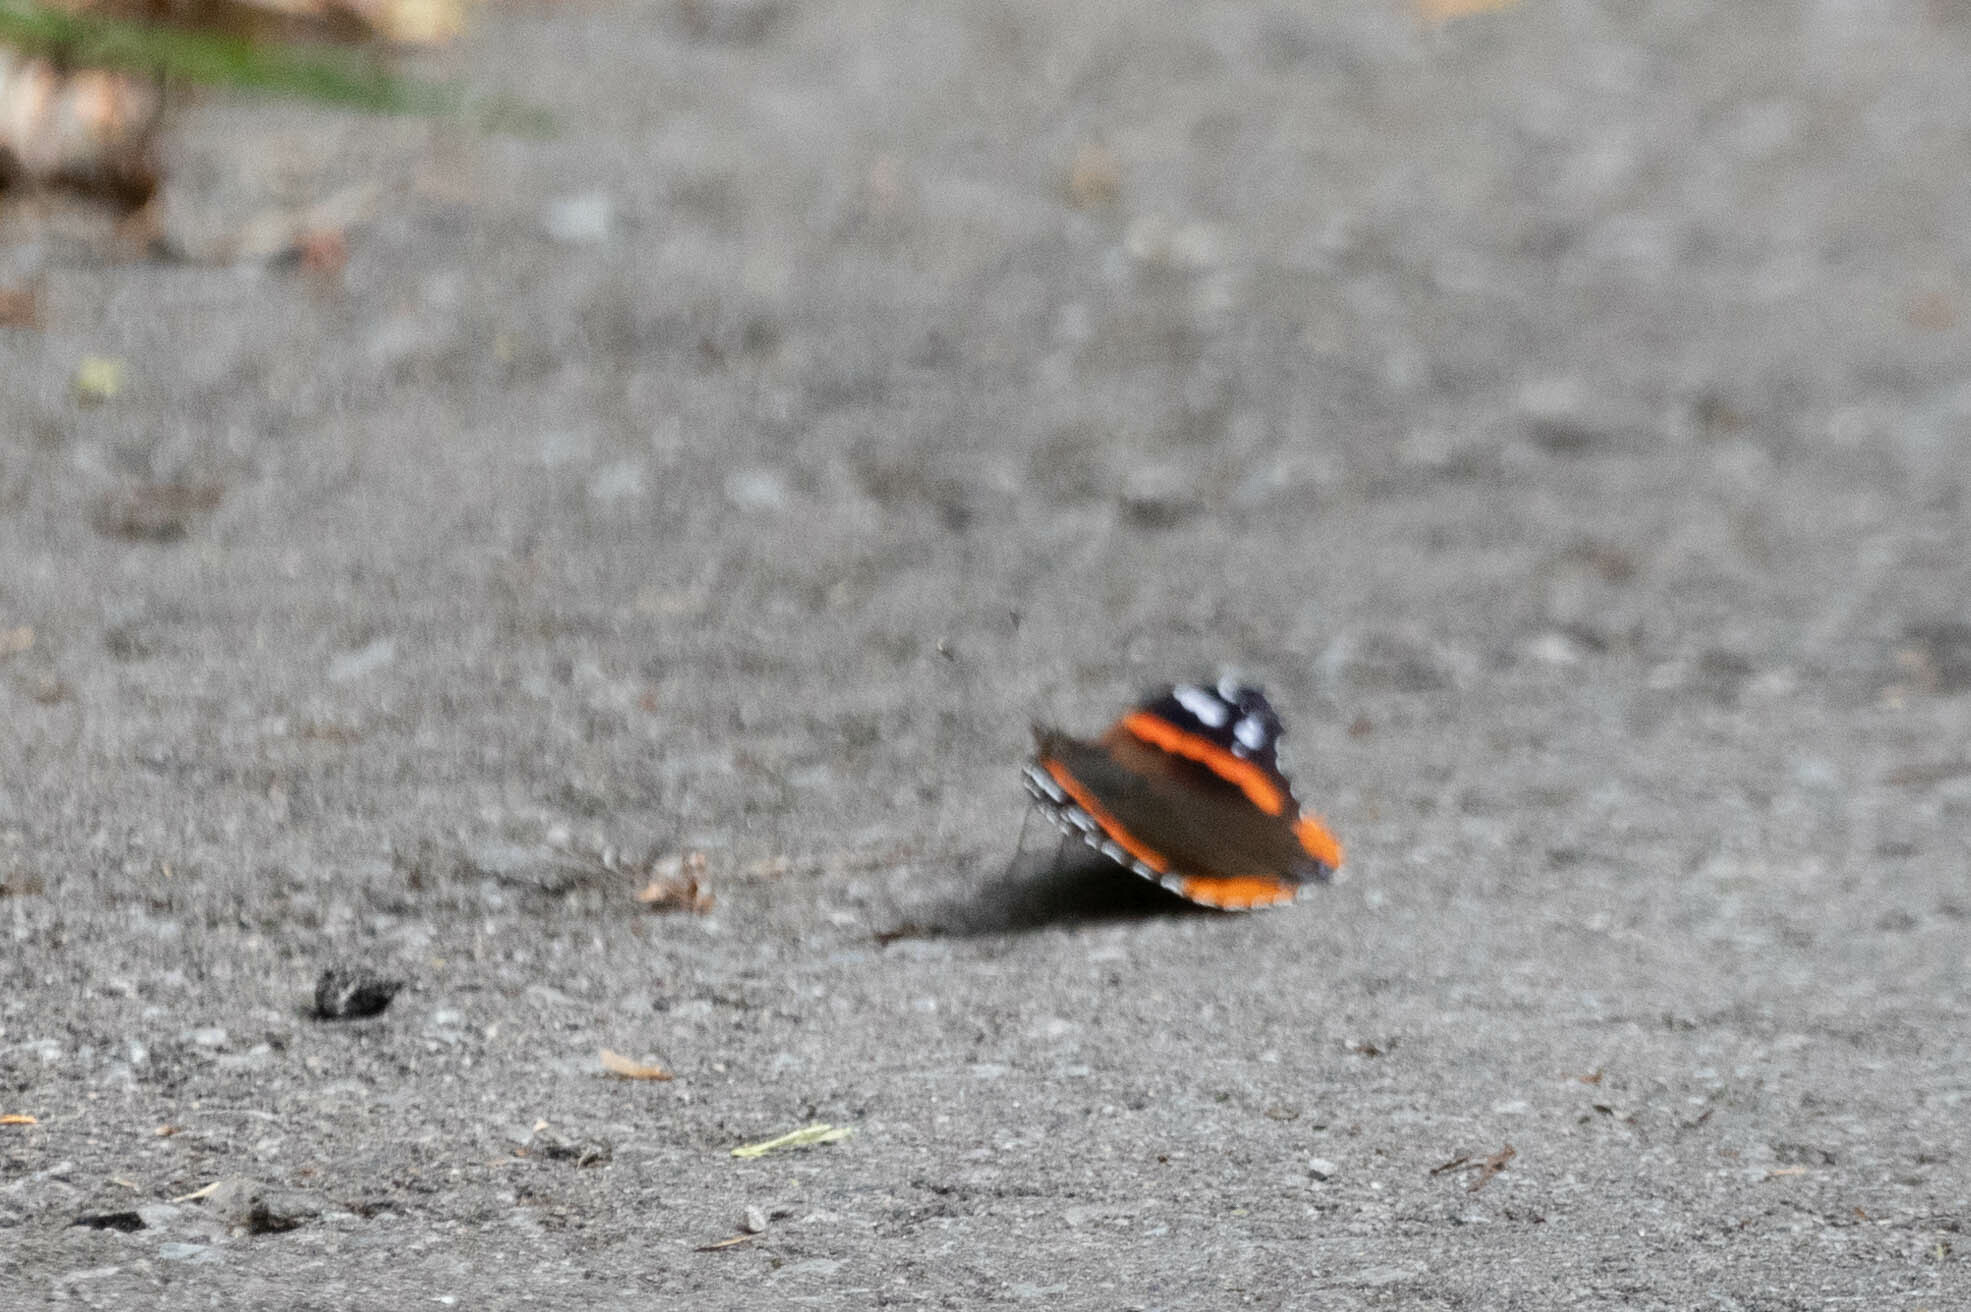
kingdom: Animalia
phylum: Arthropoda
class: Insecta
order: Lepidoptera
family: Nymphalidae
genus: Vanessa
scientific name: Vanessa atalanta
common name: Red admiral
